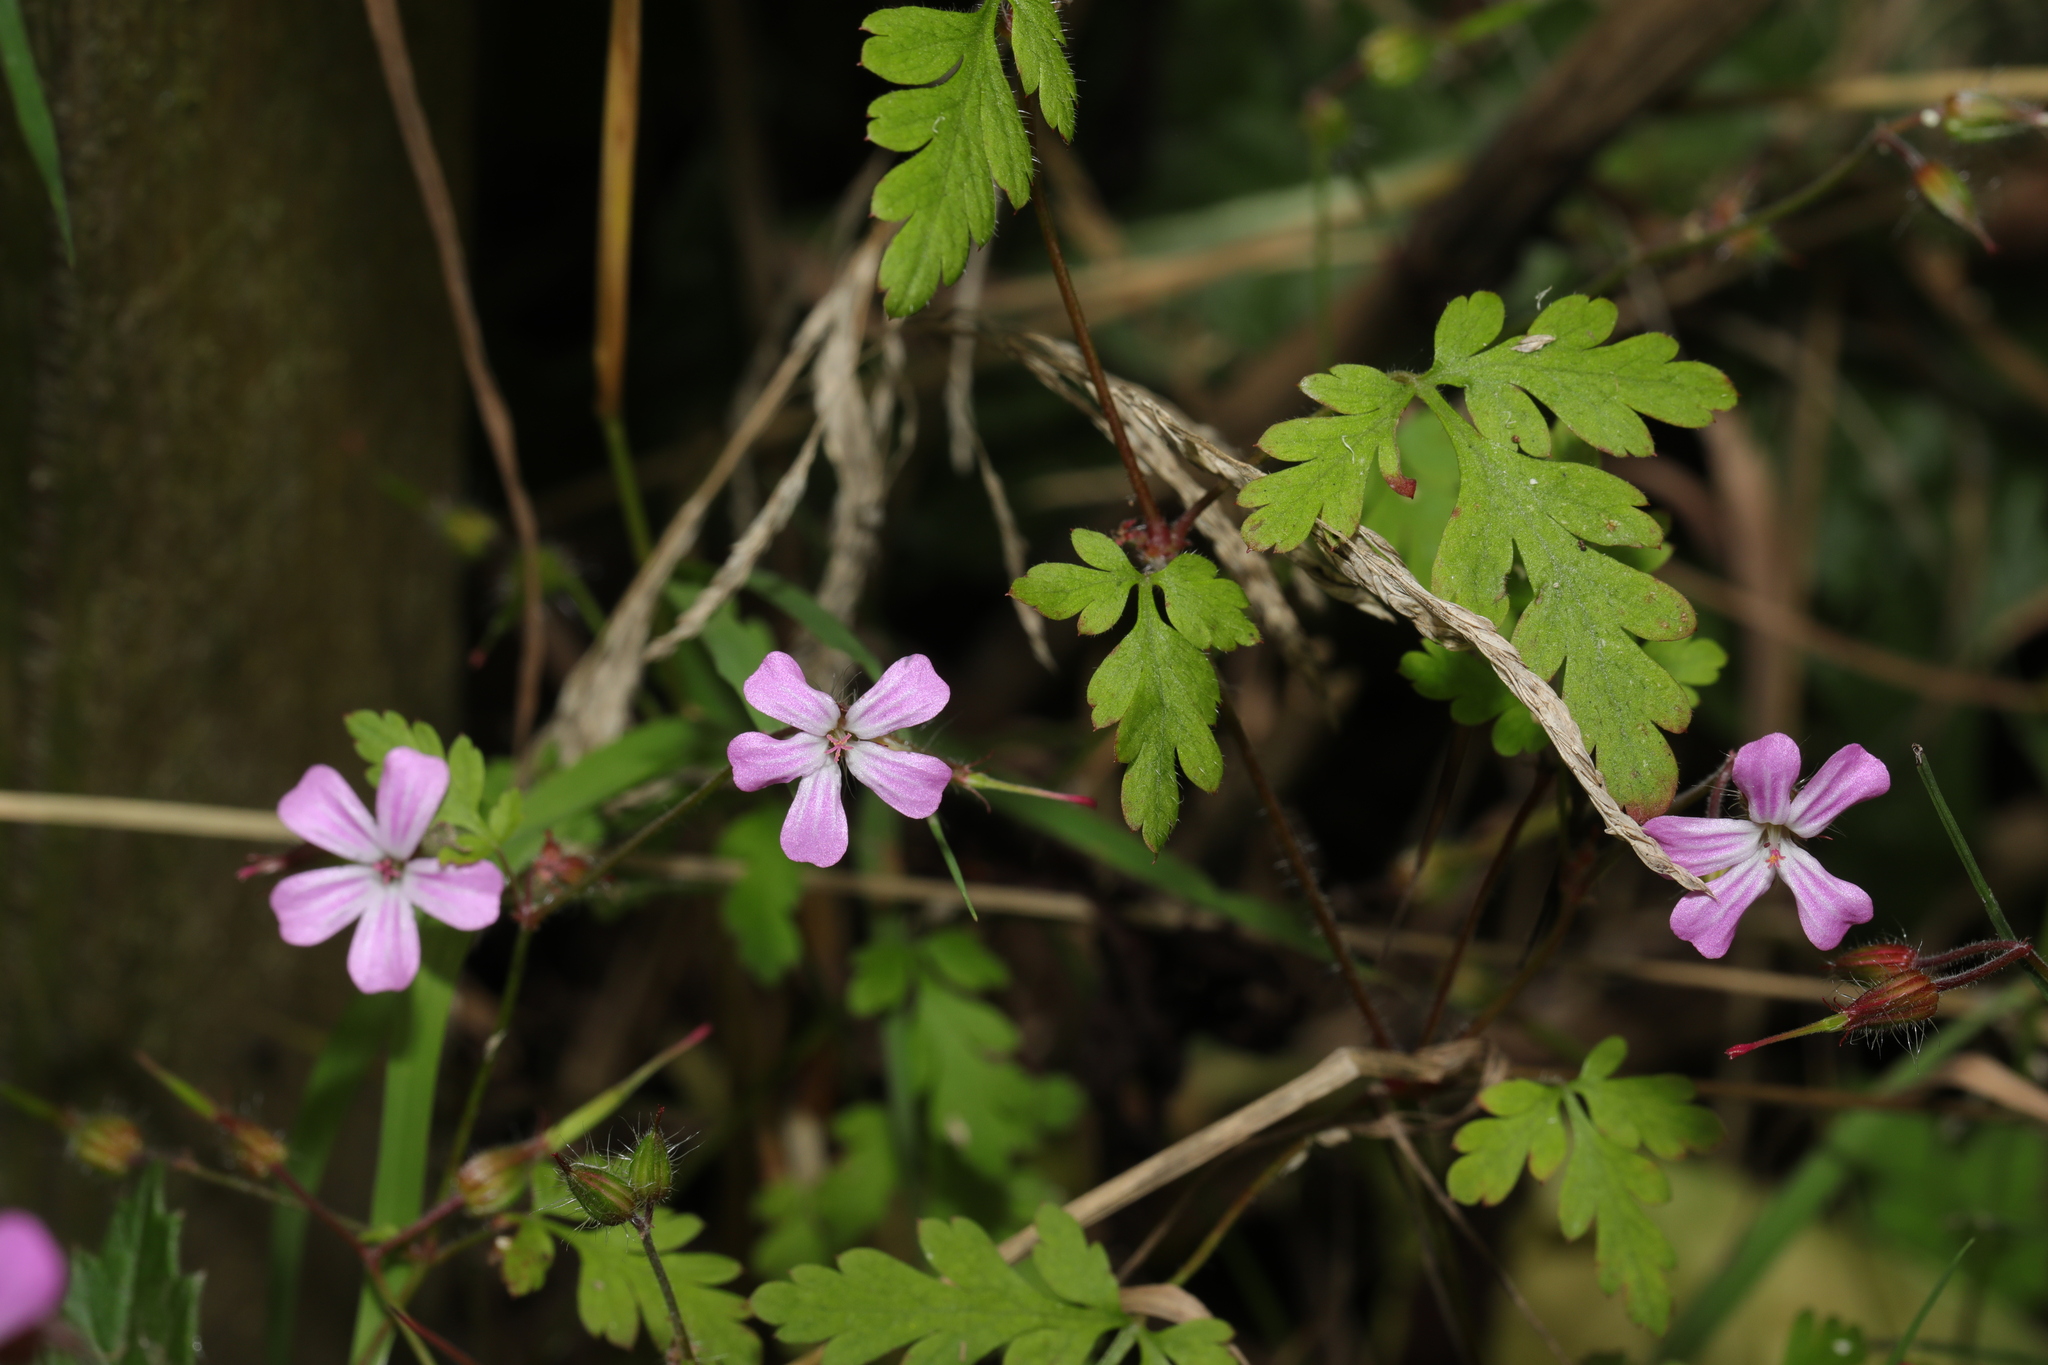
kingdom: Plantae
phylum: Tracheophyta
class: Magnoliopsida
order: Geraniales
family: Geraniaceae
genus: Geranium
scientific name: Geranium robertianum
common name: Herb-robert
